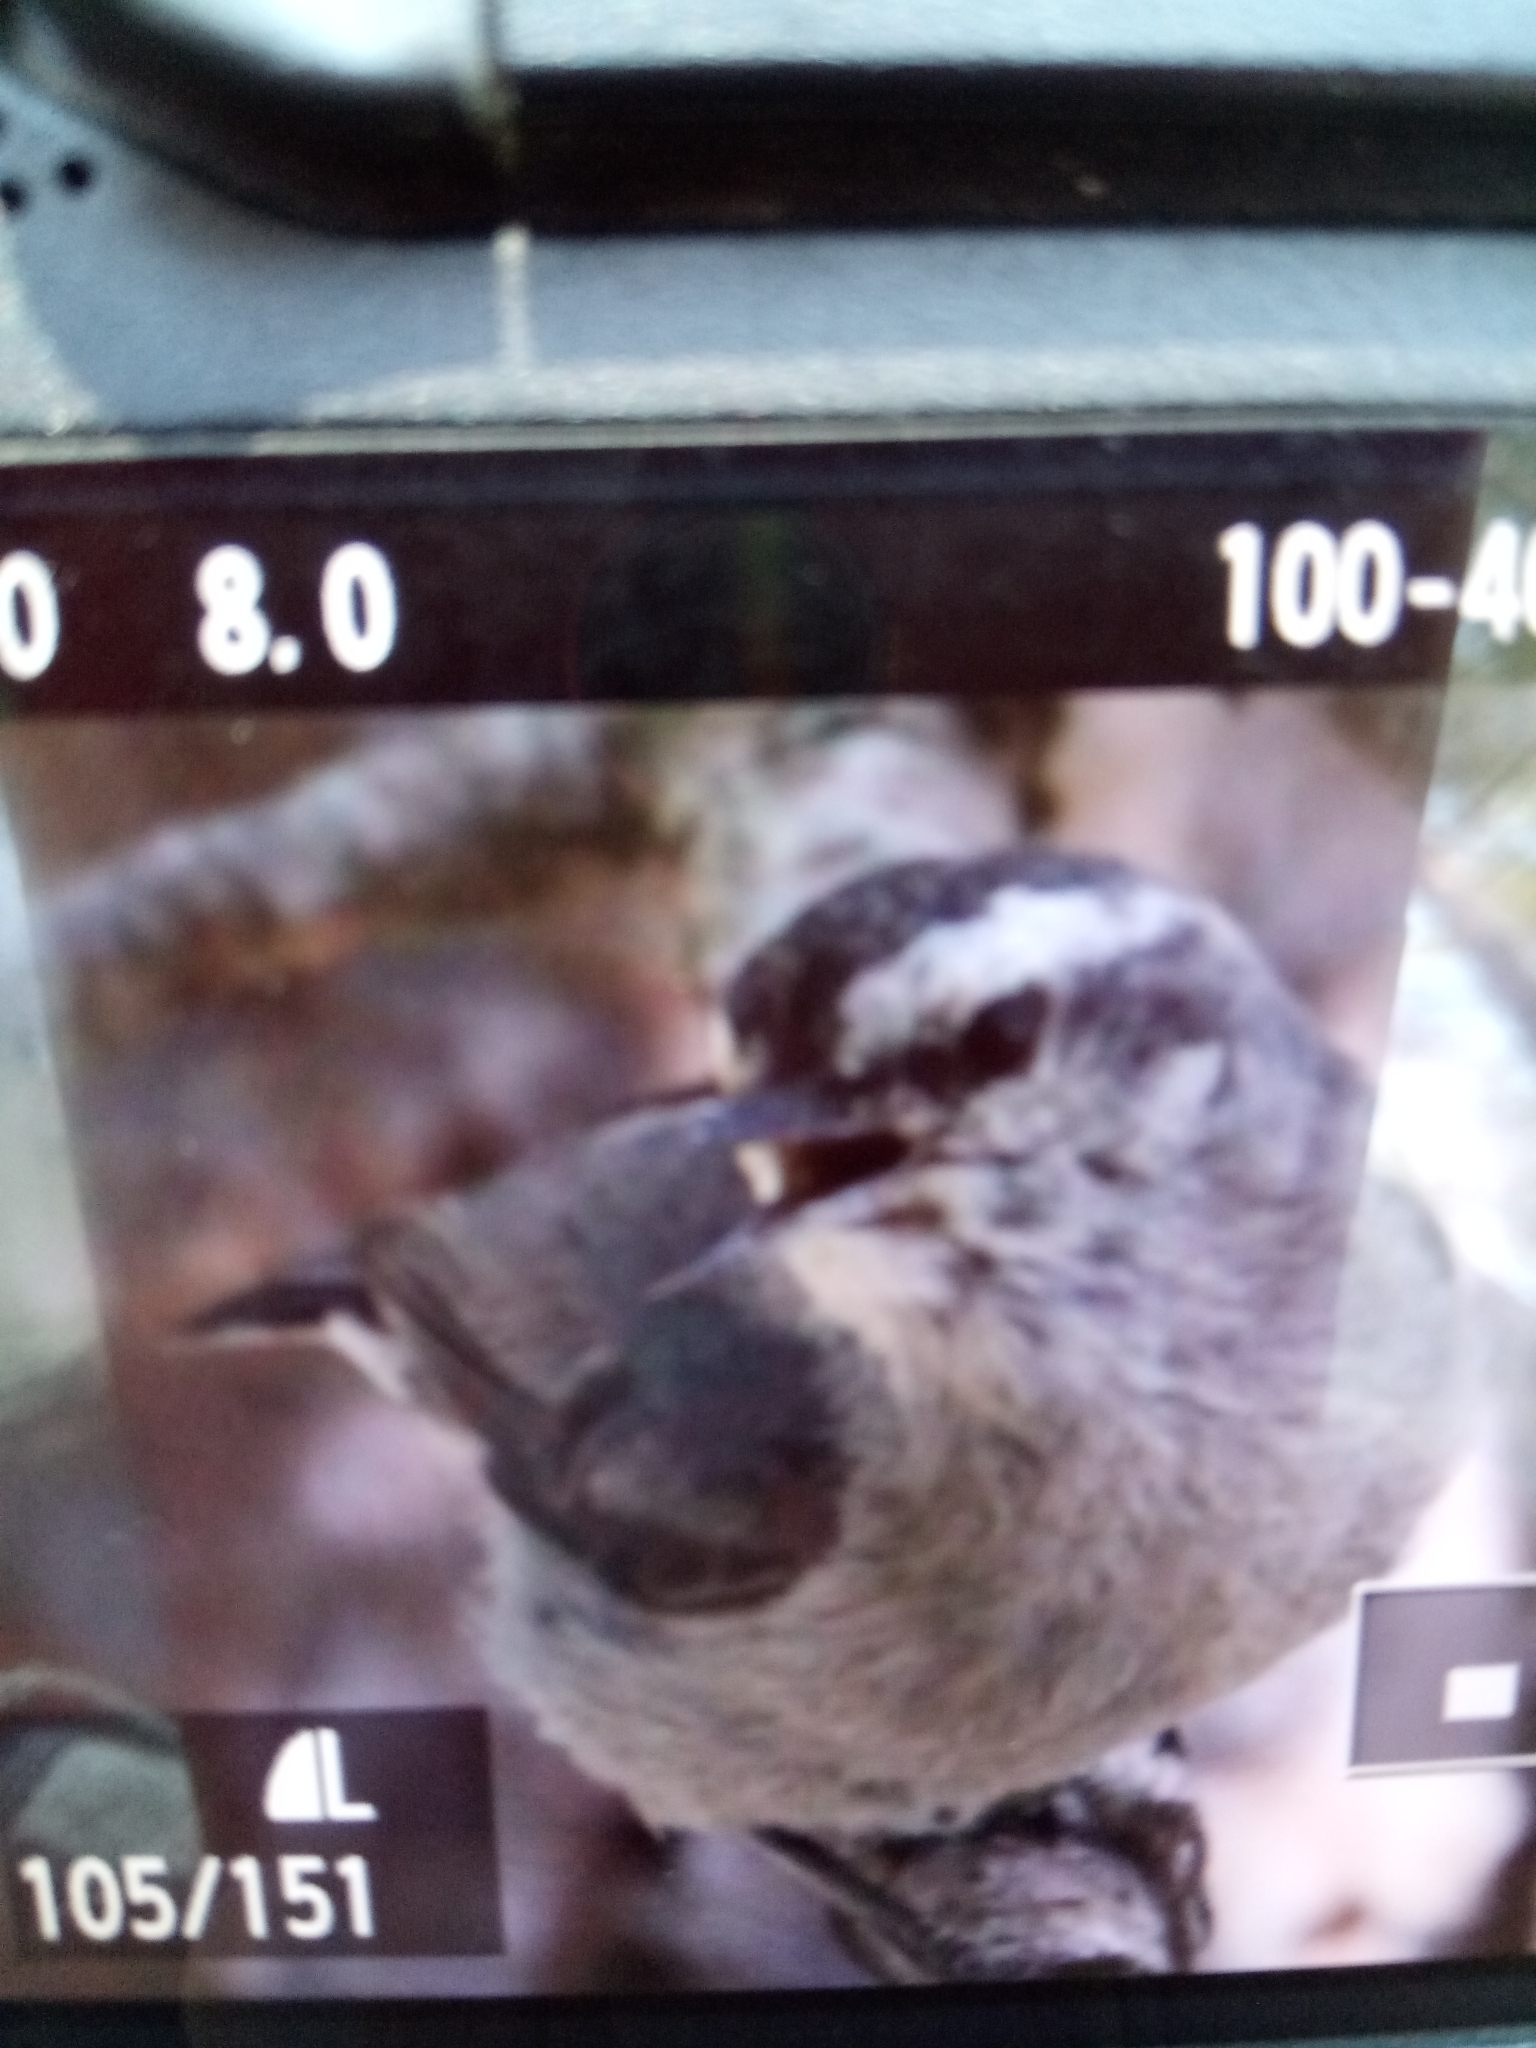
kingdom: Animalia
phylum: Chordata
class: Aves
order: Passeriformes
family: Sittidae
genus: Sitta
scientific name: Sitta whiteheadi
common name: Corsican nuthatch
